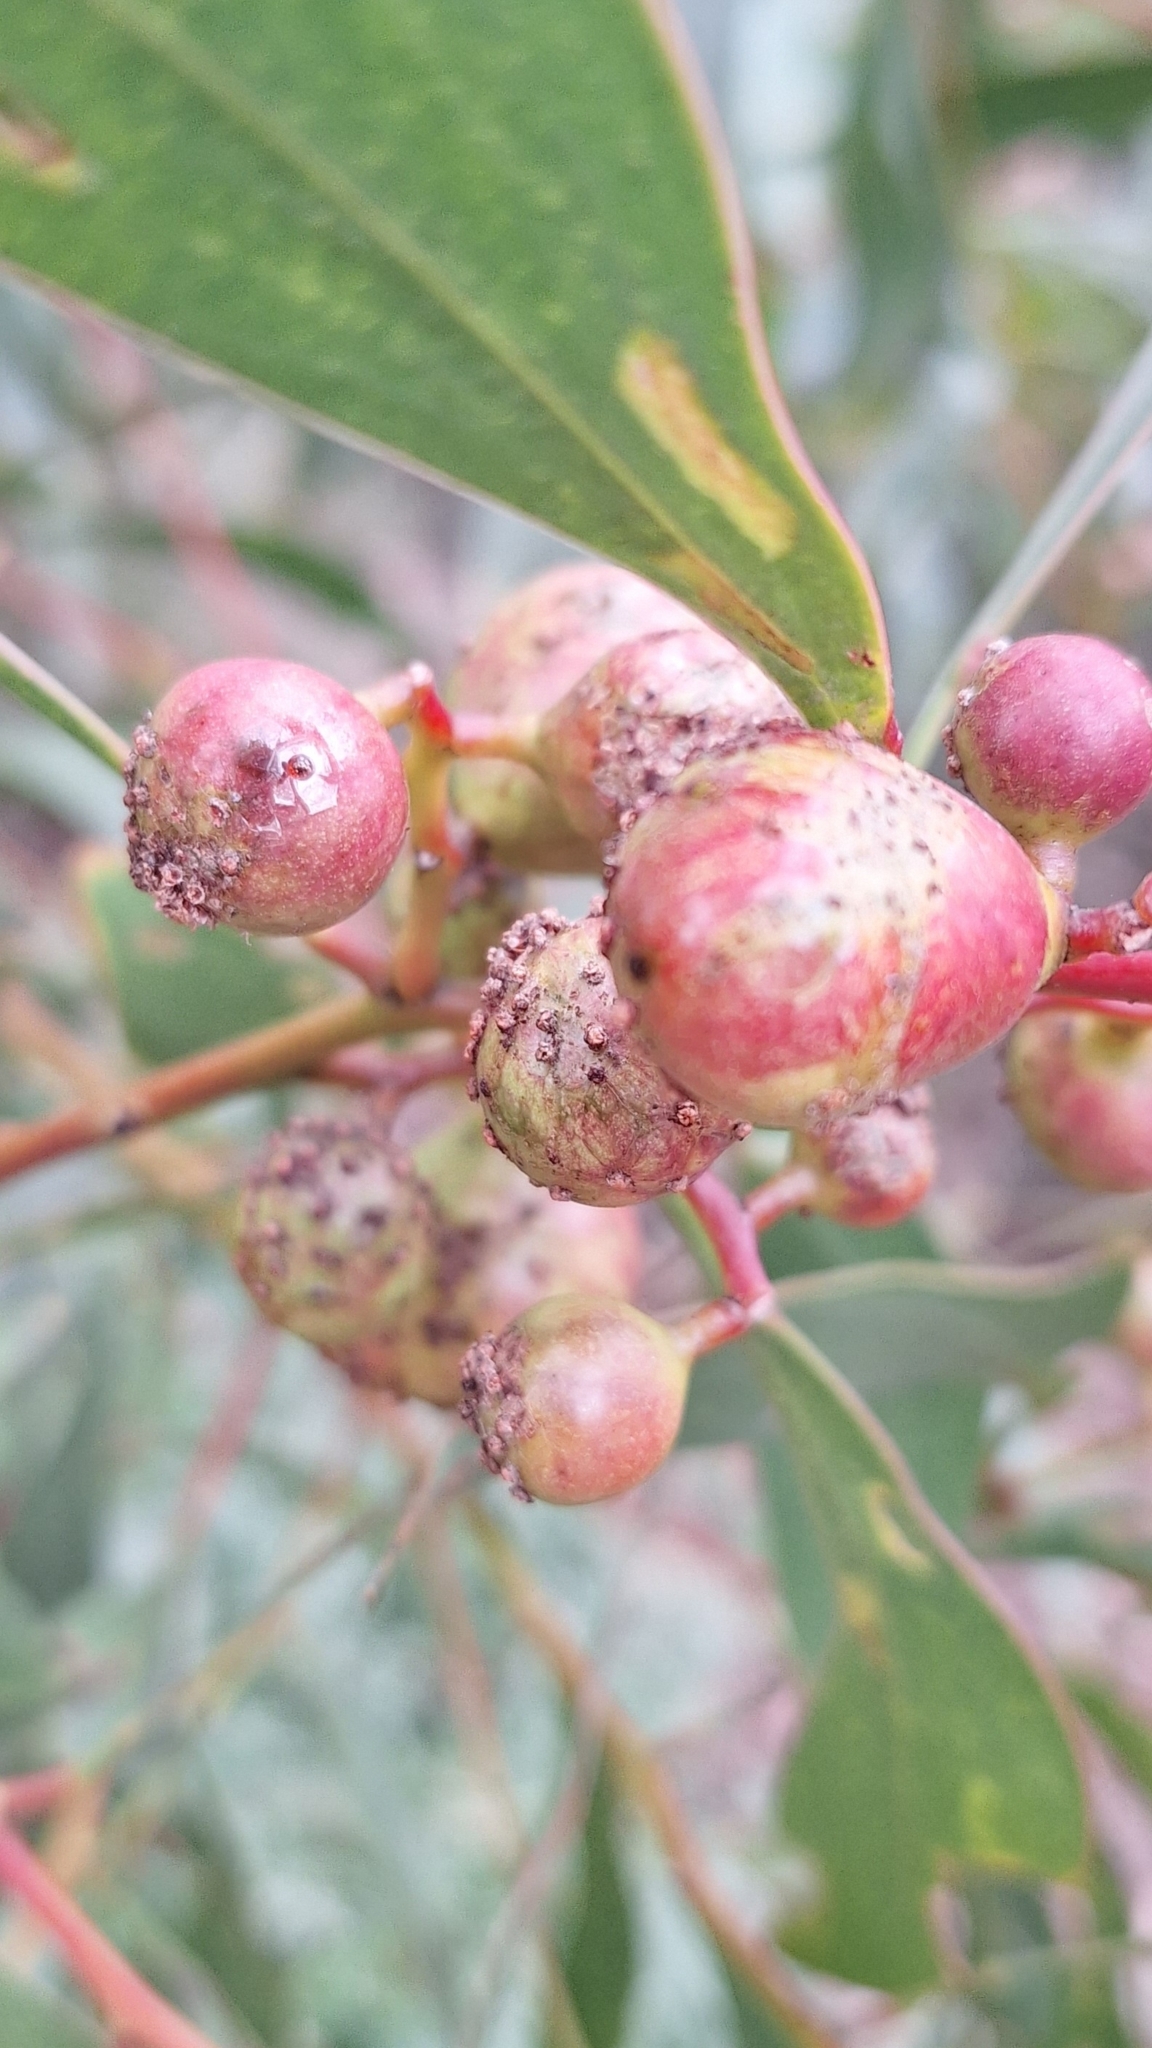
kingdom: Animalia
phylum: Arthropoda
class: Insecta
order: Hymenoptera
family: Pteromalidae
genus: Trichilogaster
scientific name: Trichilogaster signiventris
